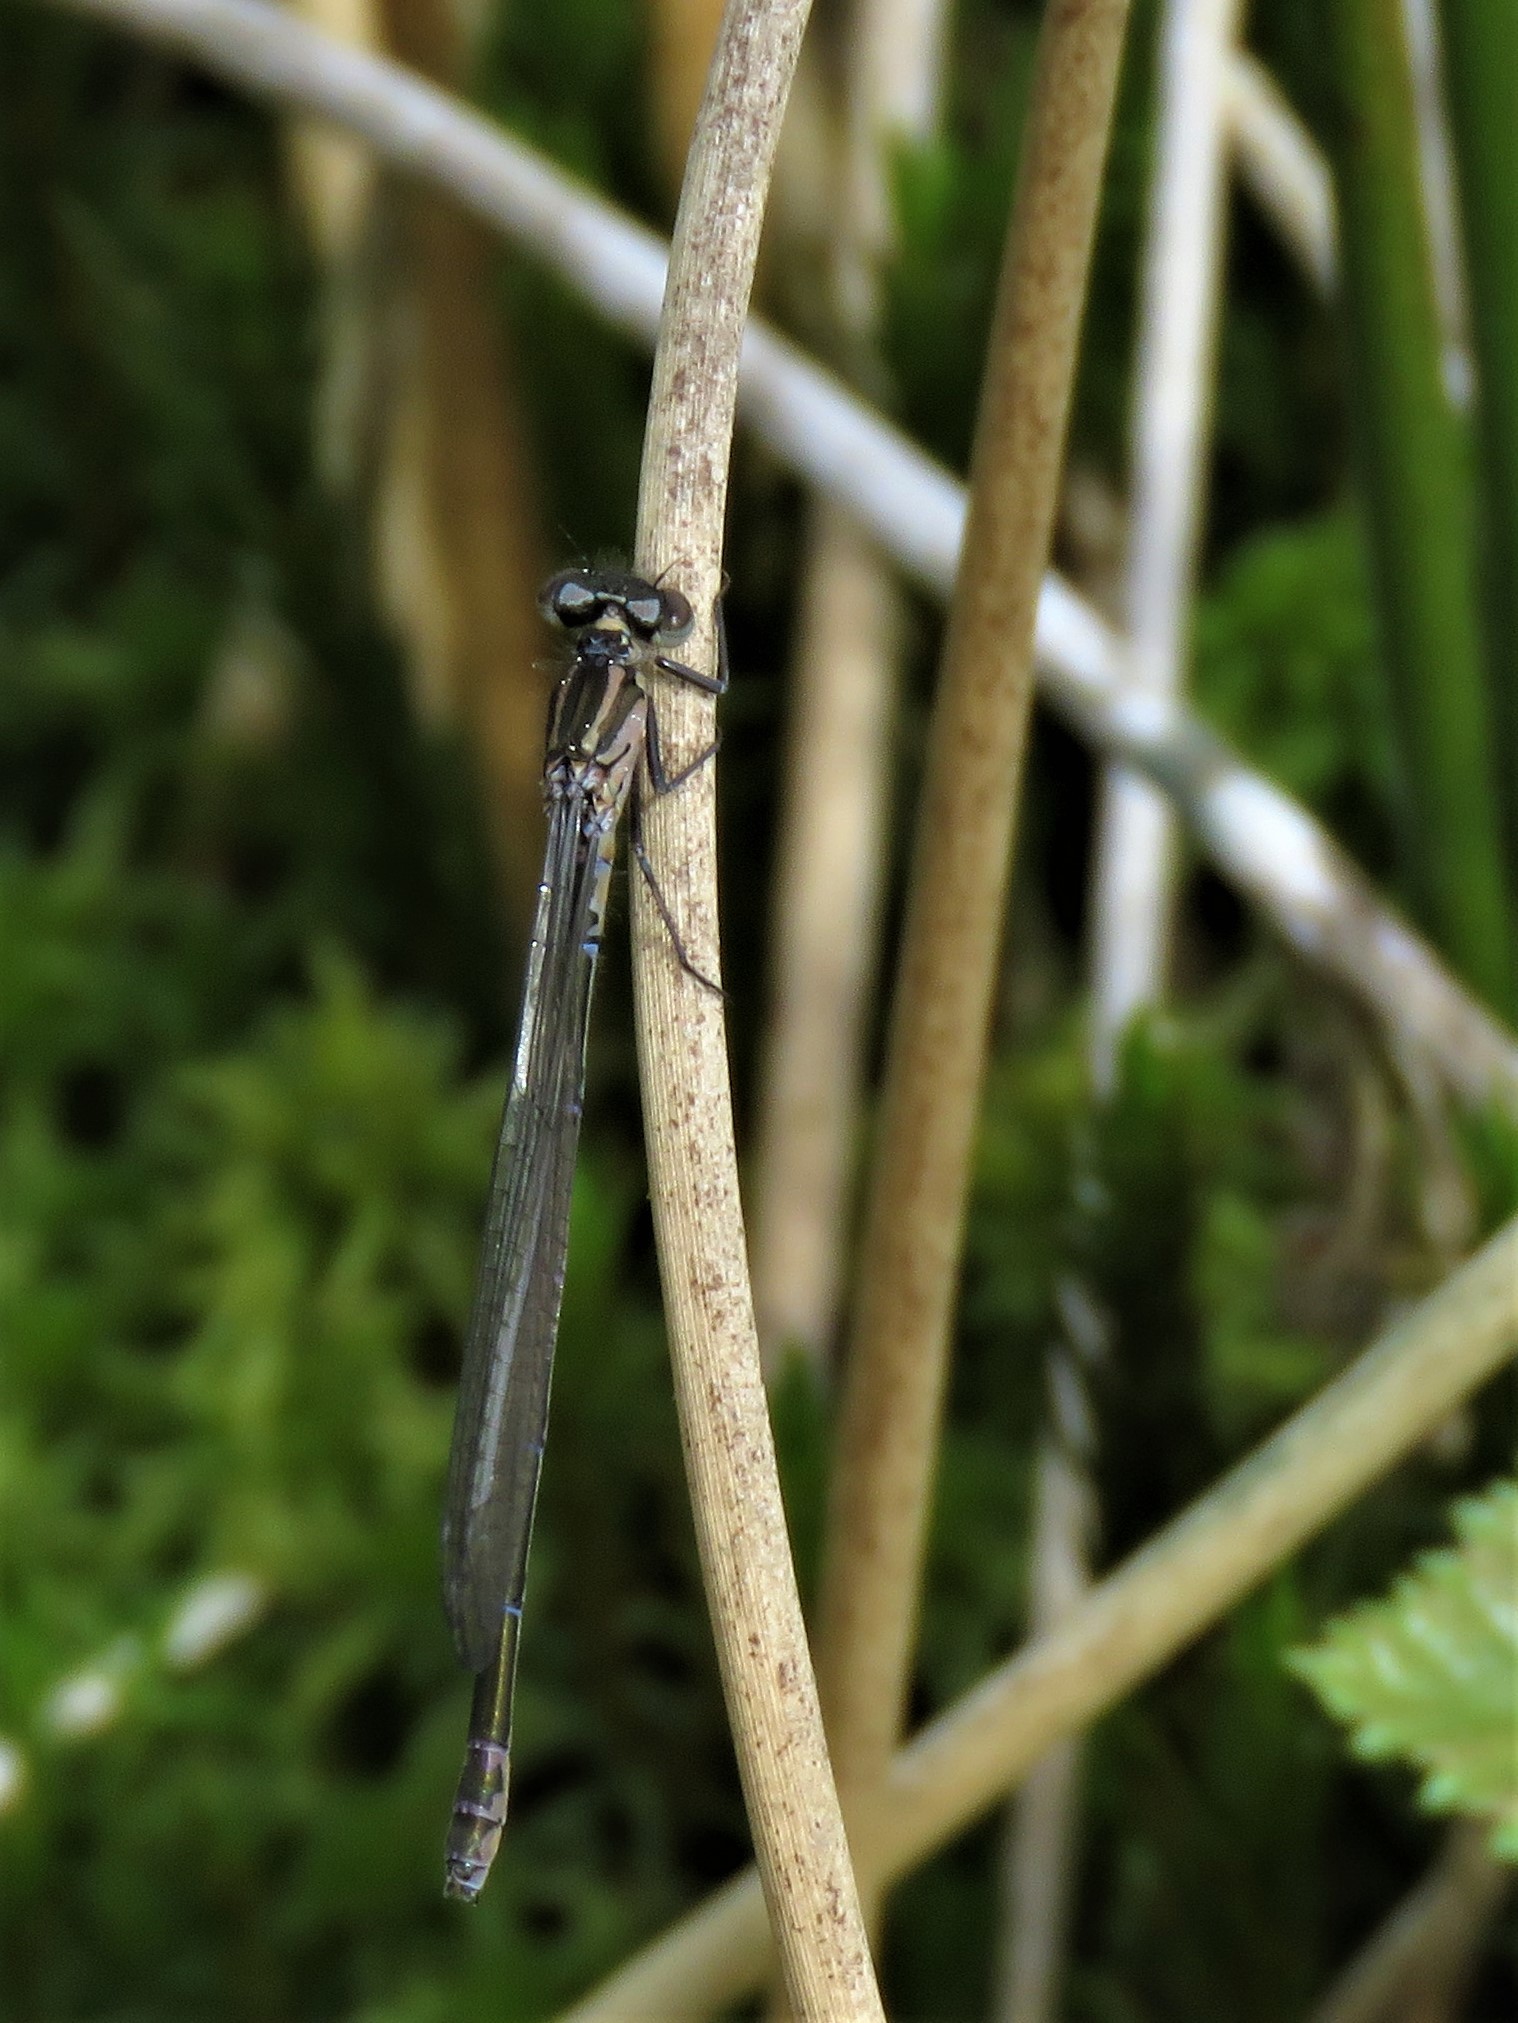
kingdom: Animalia
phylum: Arthropoda
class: Insecta
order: Odonata
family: Coenagrionidae
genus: Coenagrion
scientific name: Coenagrion pulchellum
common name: Variable bluet
